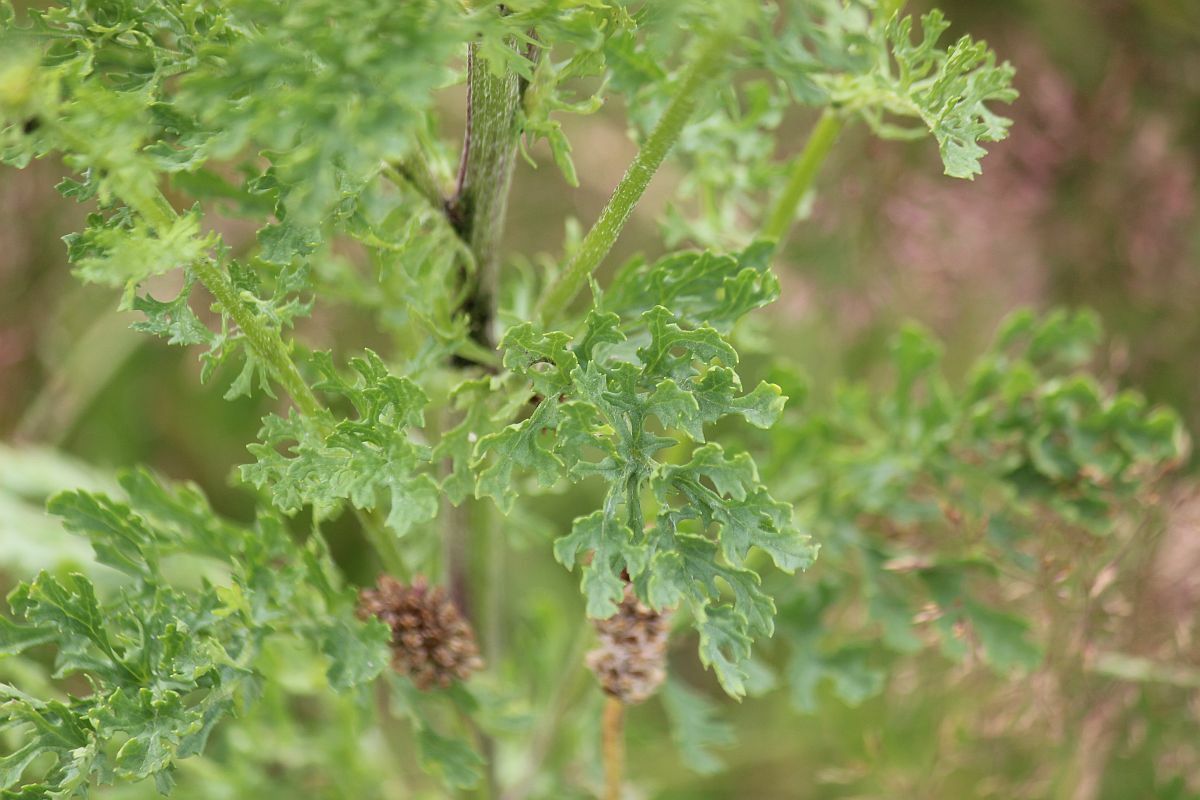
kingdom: Plantae
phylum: Tracheophyta
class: Magnoliopsida
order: Asterales
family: Asteraceae
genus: Jacobaea
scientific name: Jacobaea vulgaris
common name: Stinking willie
